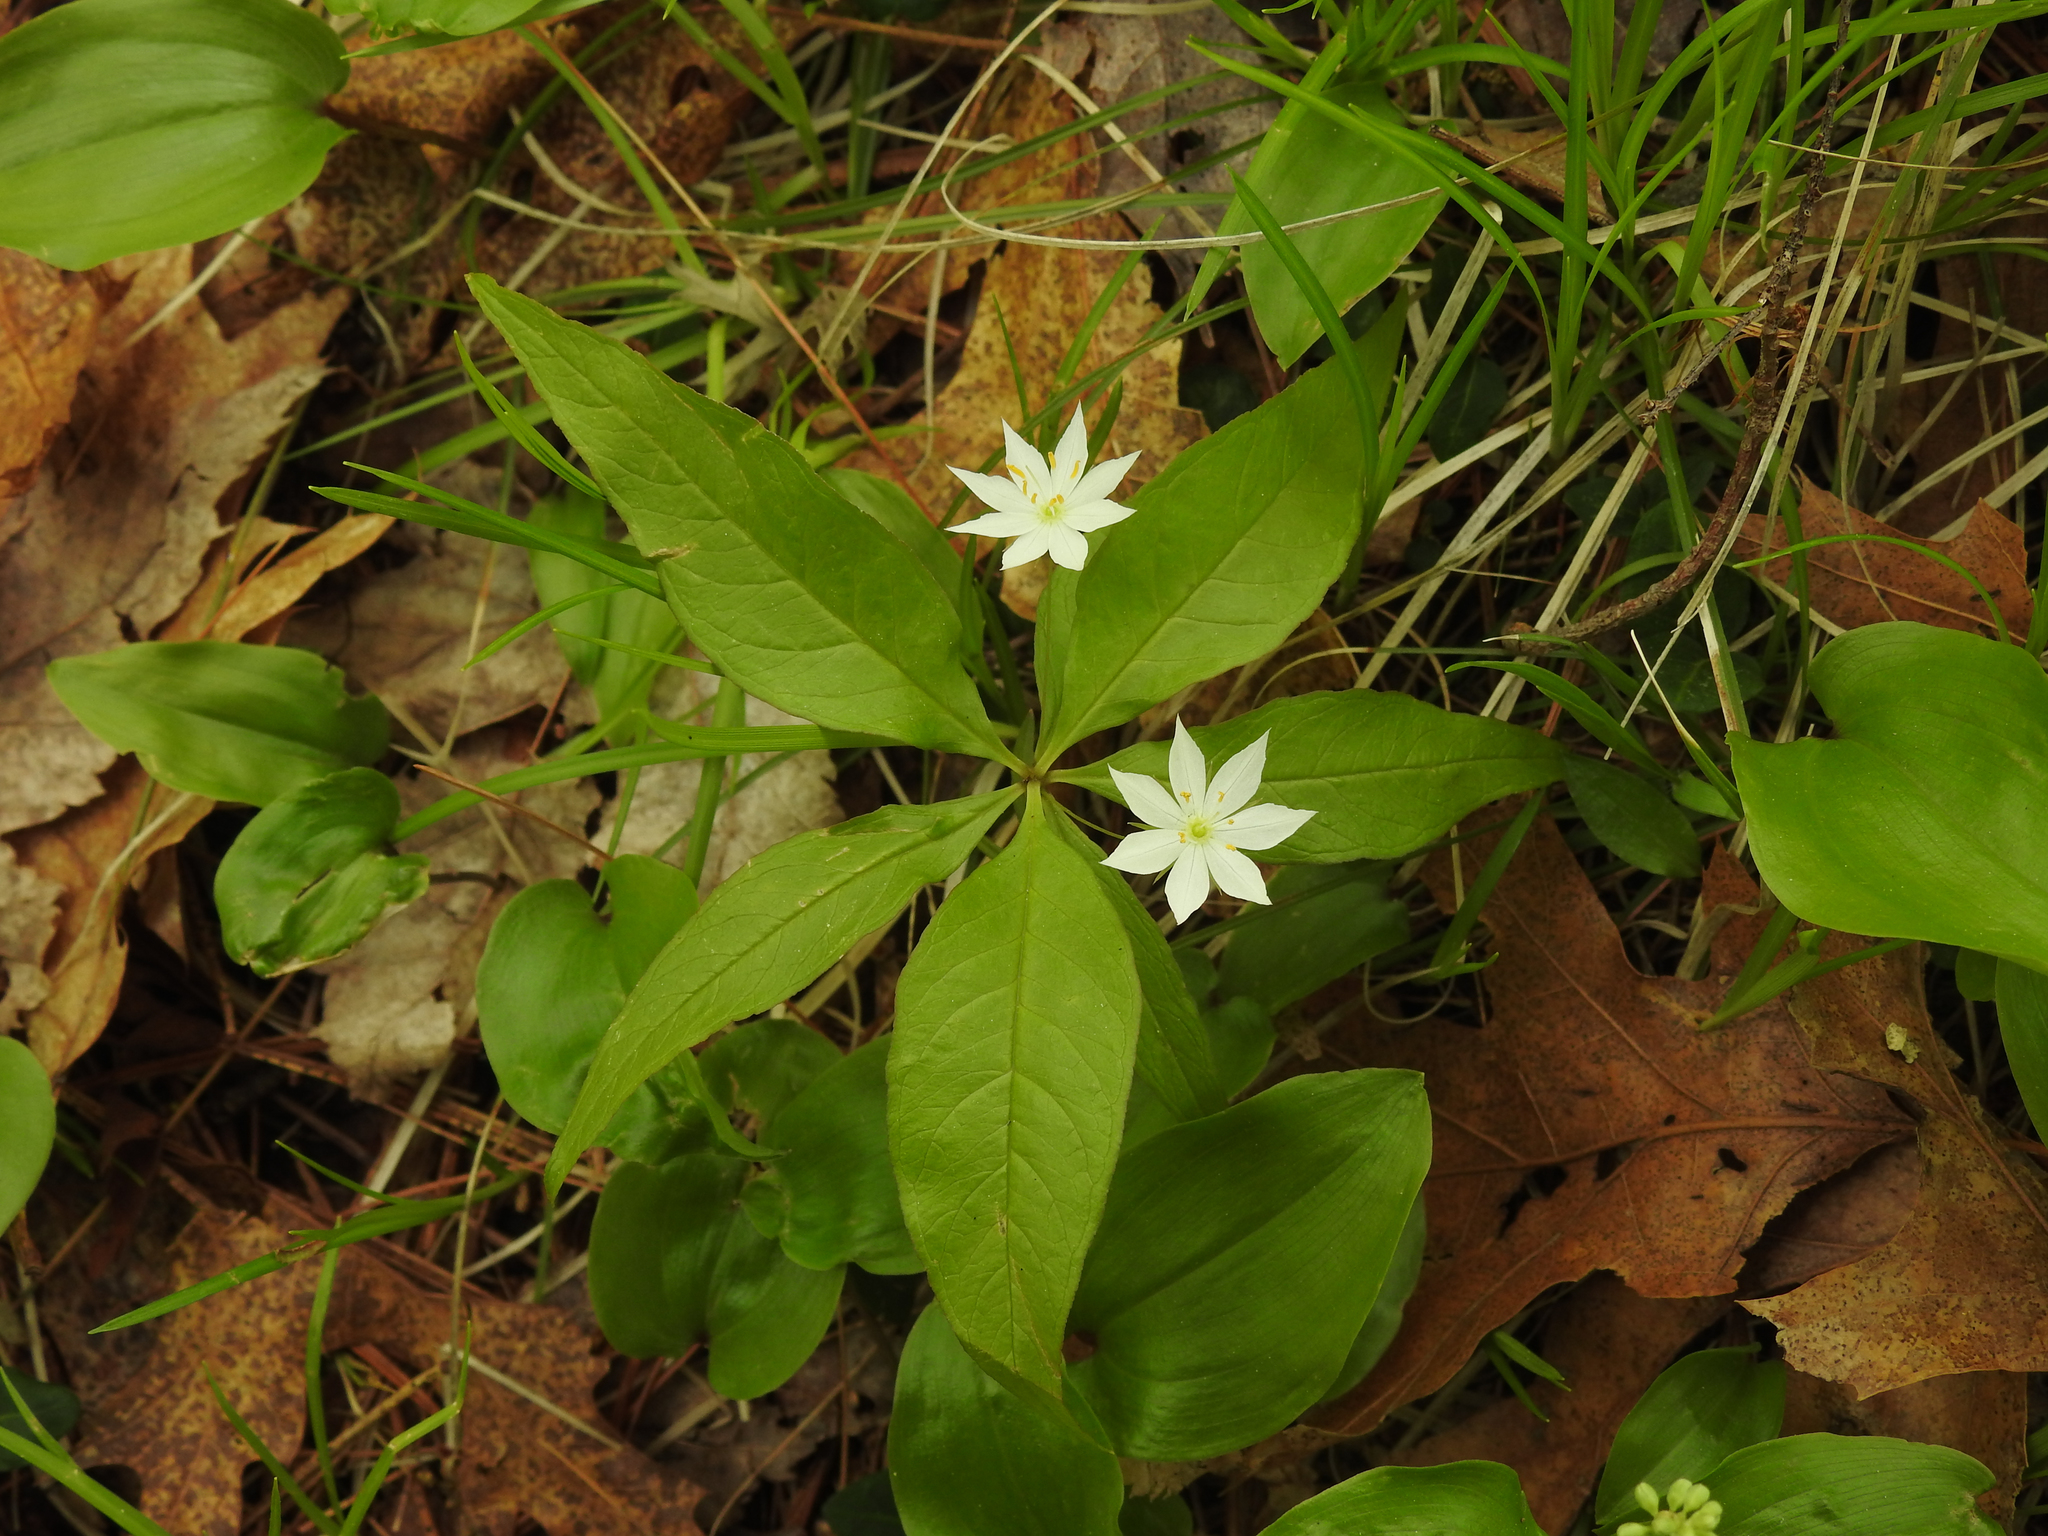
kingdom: Plantae
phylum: Tracheophyta
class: Magnoliopsida
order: Ericales
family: Primulaceae
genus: Lysimachia
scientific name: Lysimachia borealis
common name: American starflower
